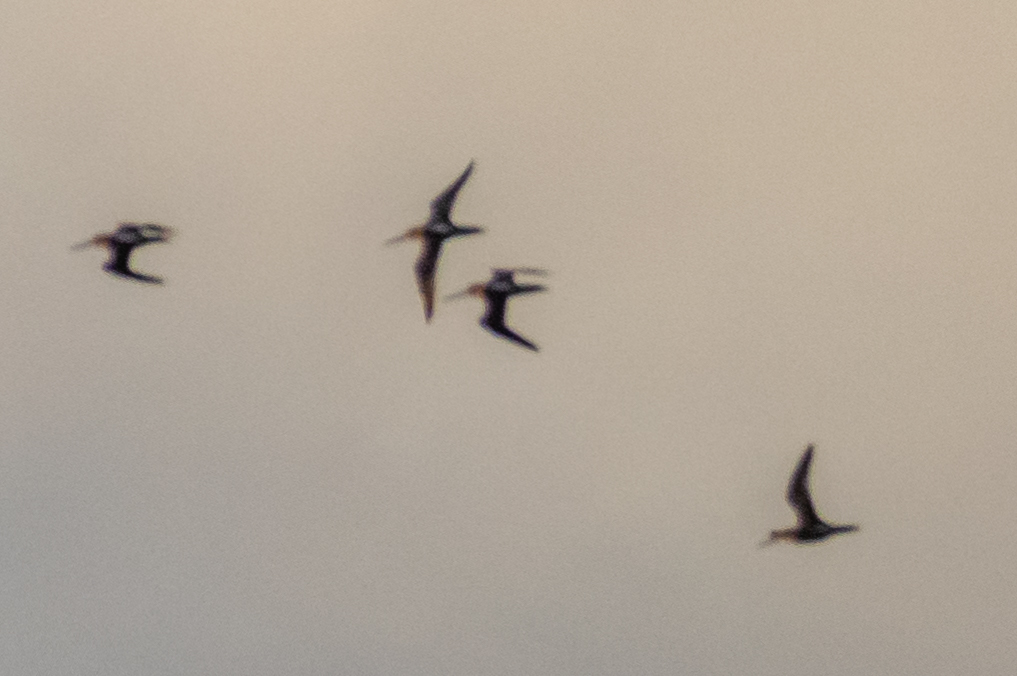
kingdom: Animalia
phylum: Chordata
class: Aves
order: Charadriiformes
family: Scolopacidae
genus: Limnodromus
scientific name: Limnodromus
